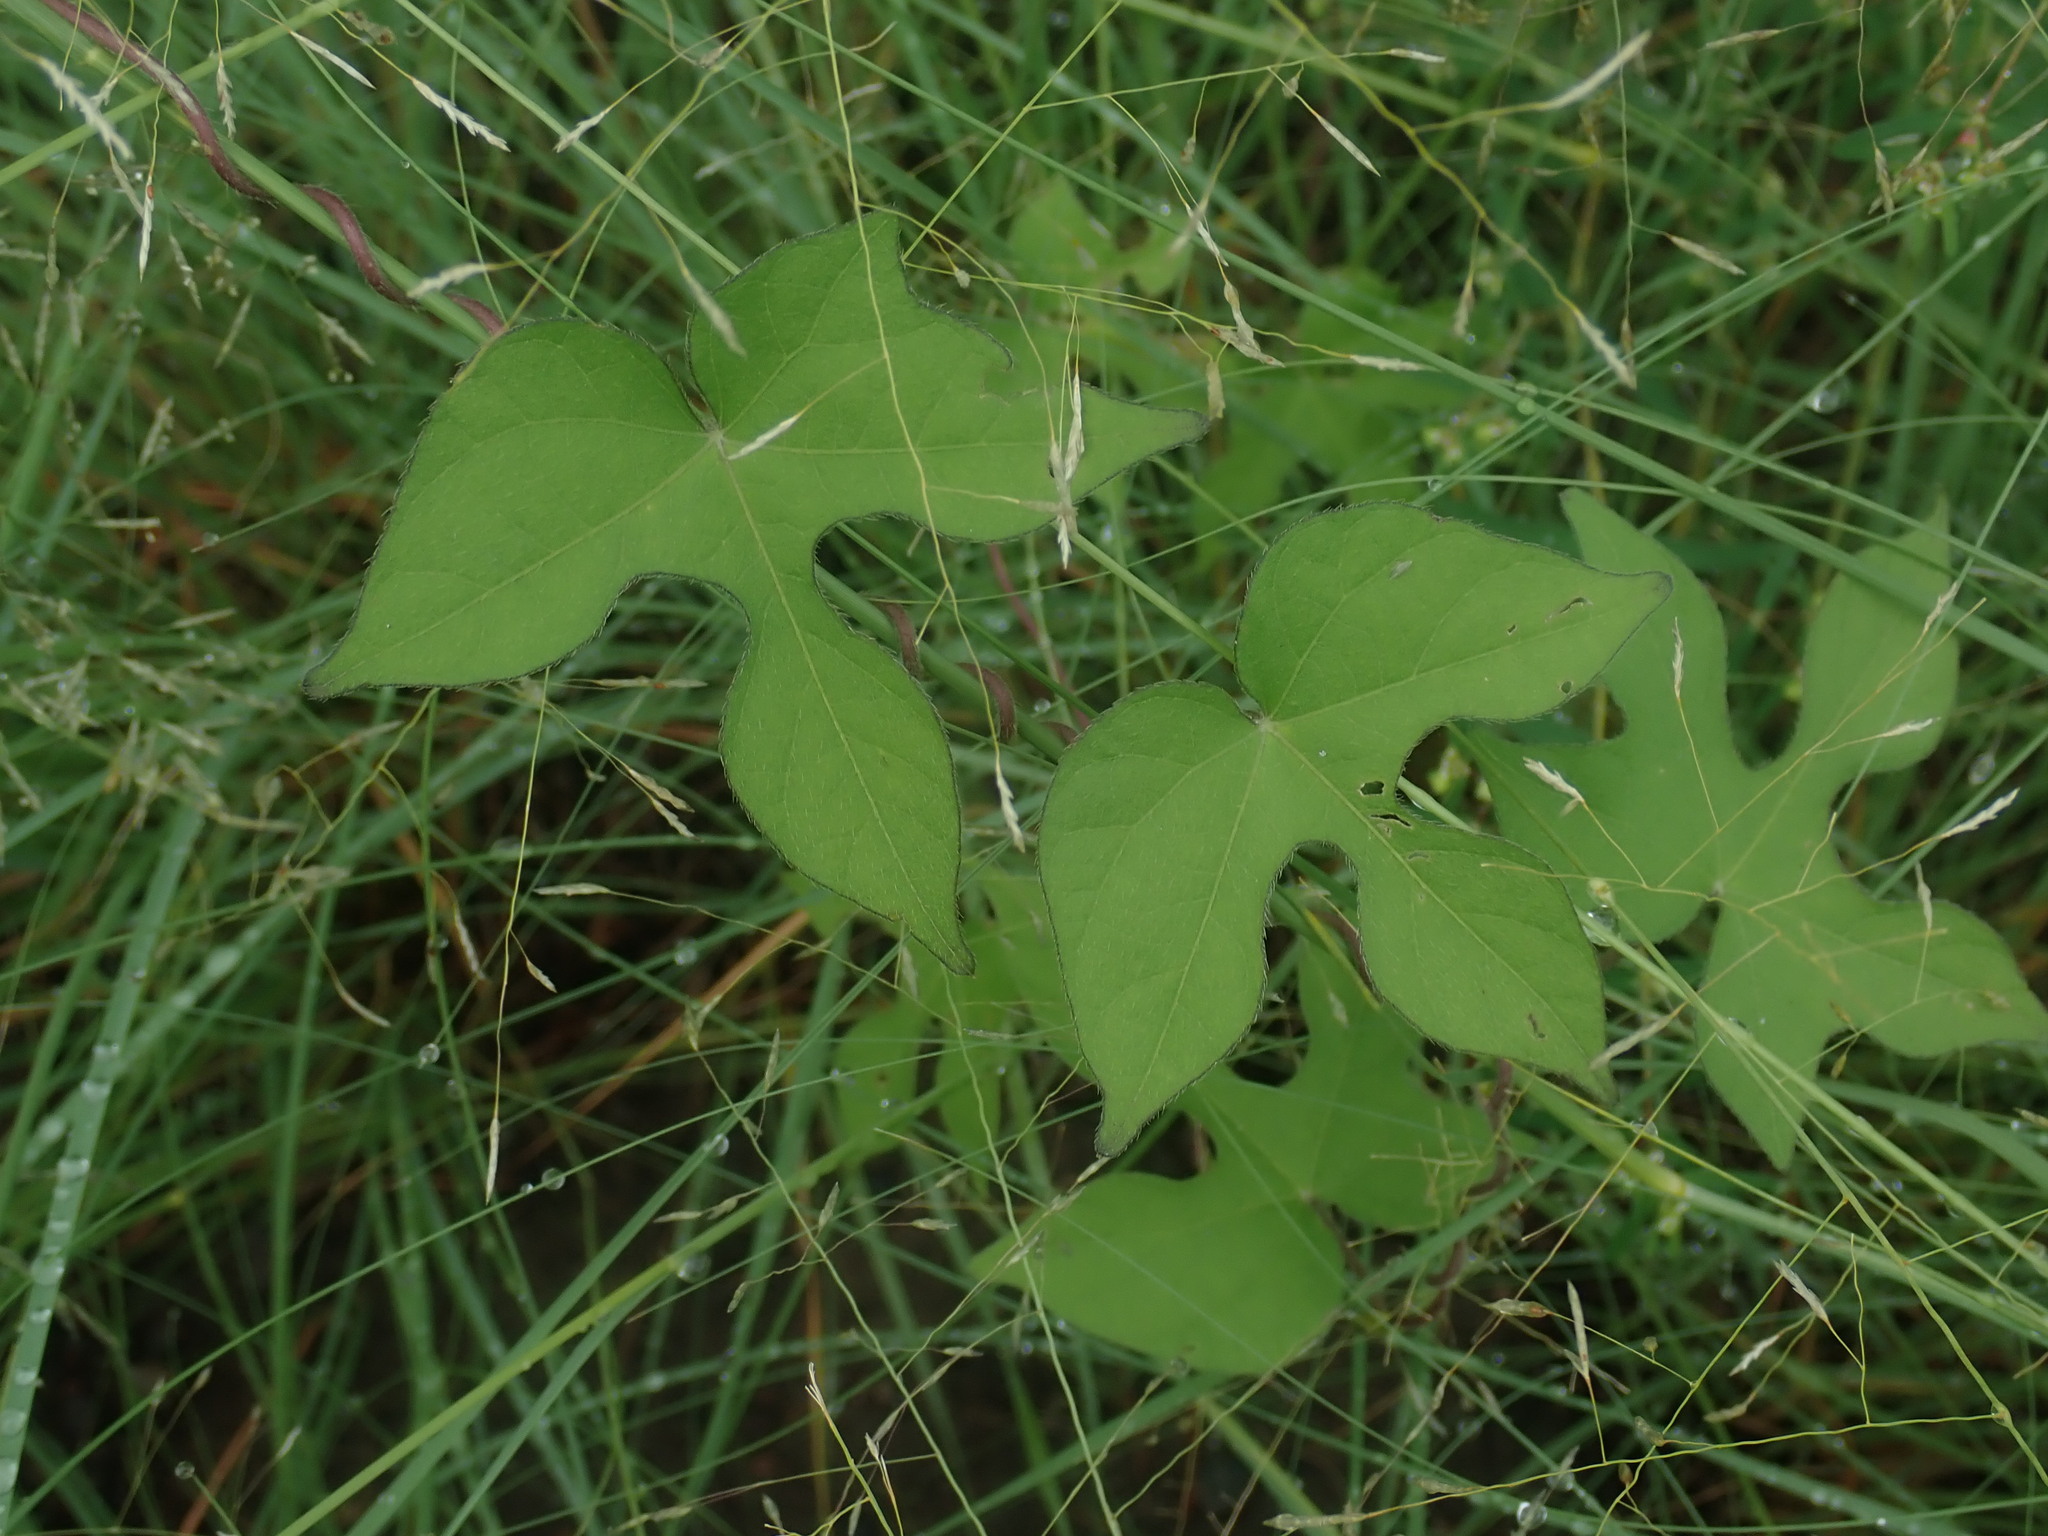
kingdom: Plantae
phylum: Tracheophyta
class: Magnoliopsida
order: Solanales
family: Convolvulaceae
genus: Ipomoea
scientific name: Ipomoea hederacea
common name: Ivy-leaved morning-glory
